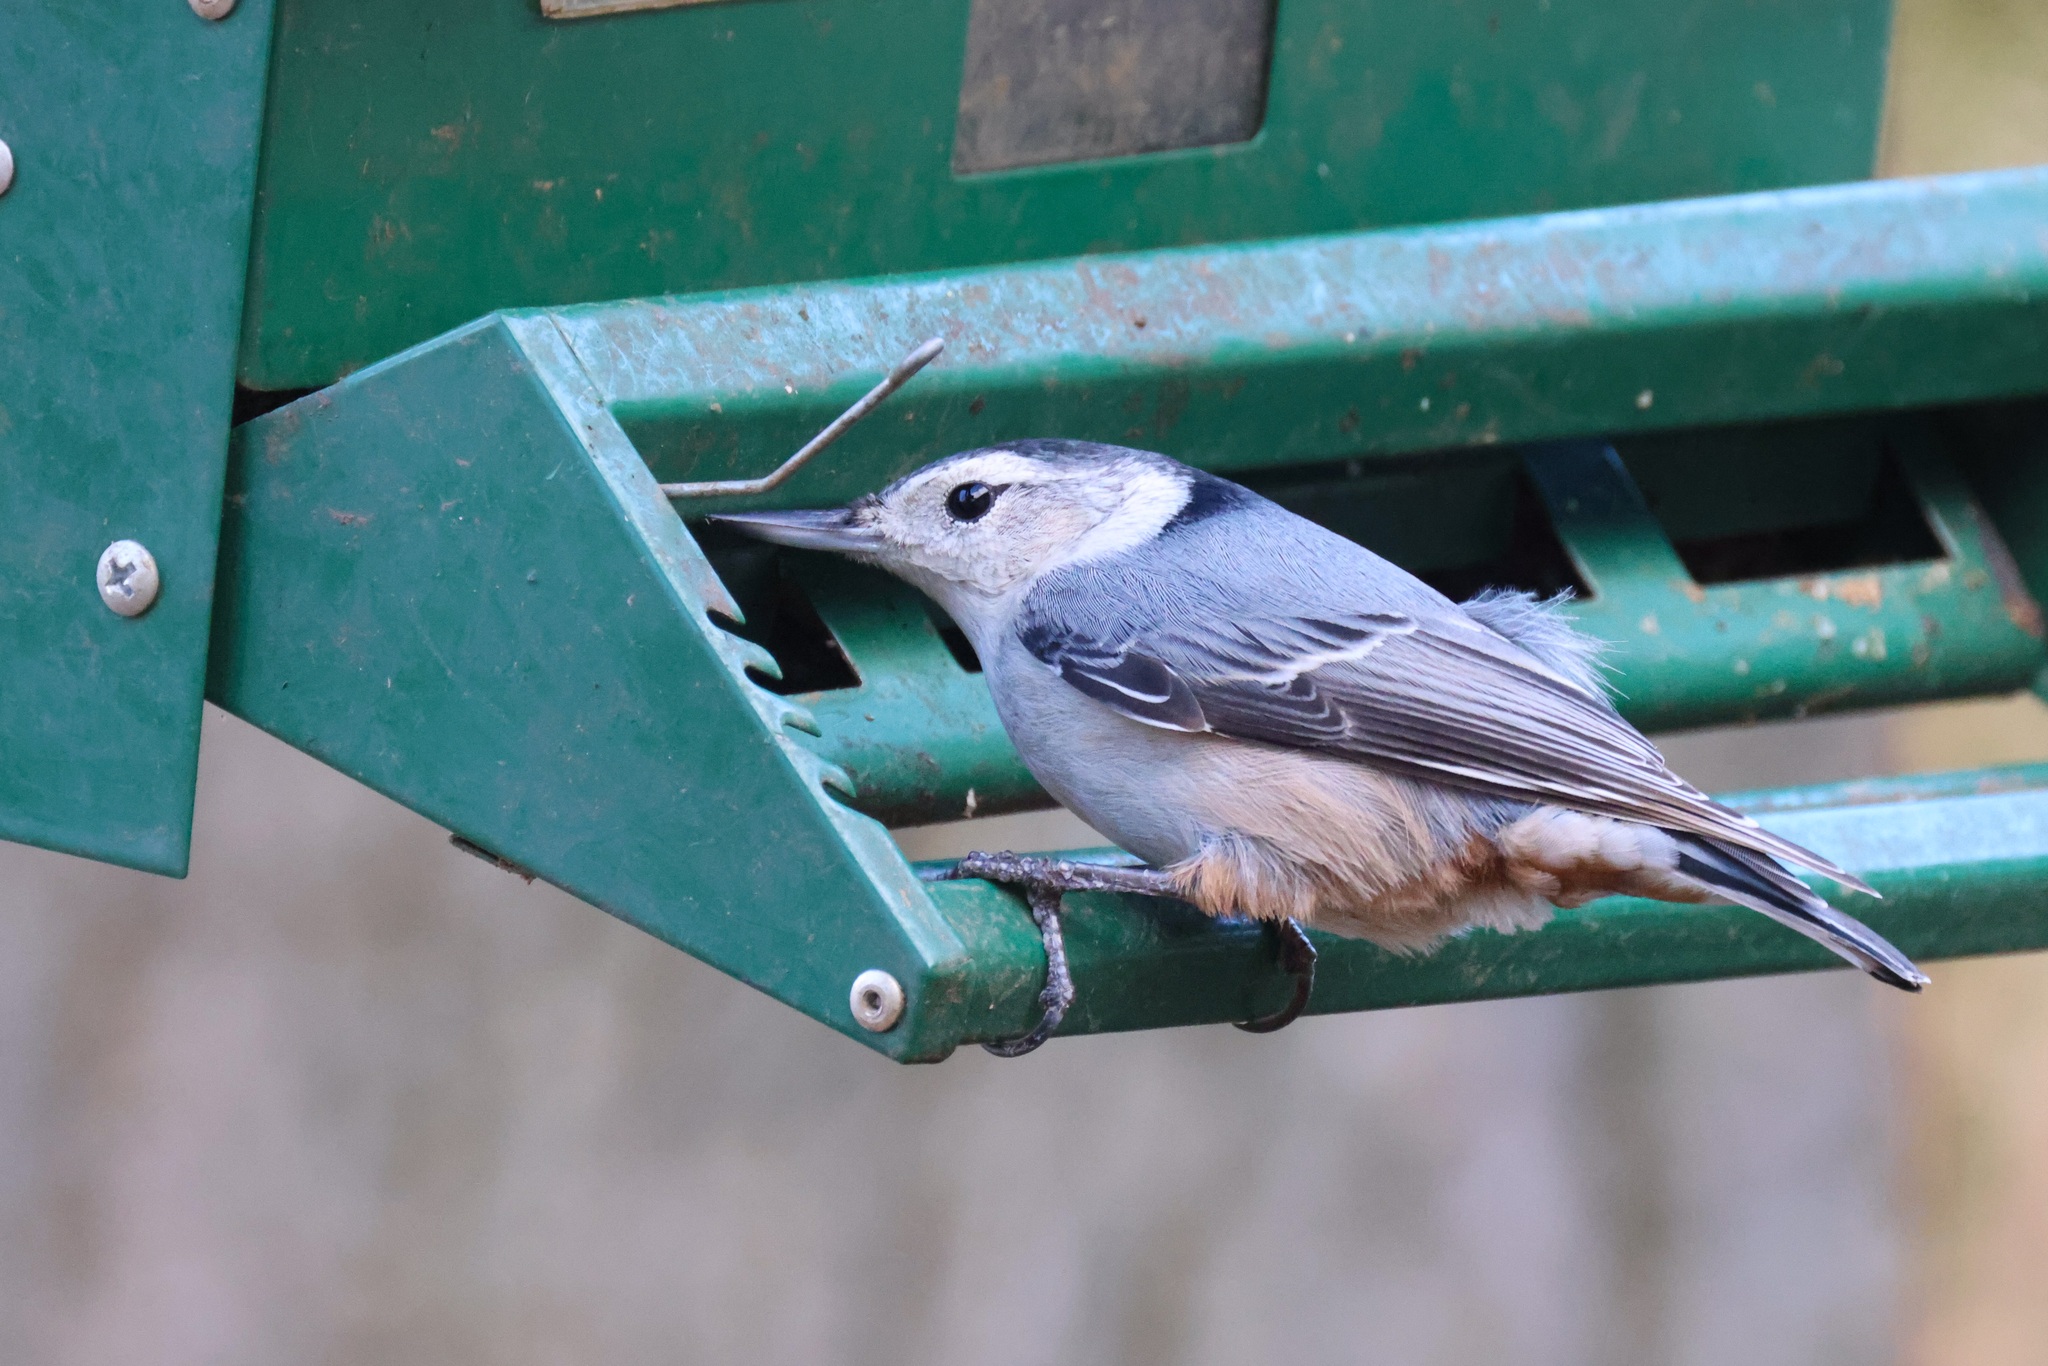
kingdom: Animalia
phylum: Chordata
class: Aves
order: Passeriformes
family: Sittidae
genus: Sitta
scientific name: Sitta carolinensis
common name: White-breasted nuthatch
